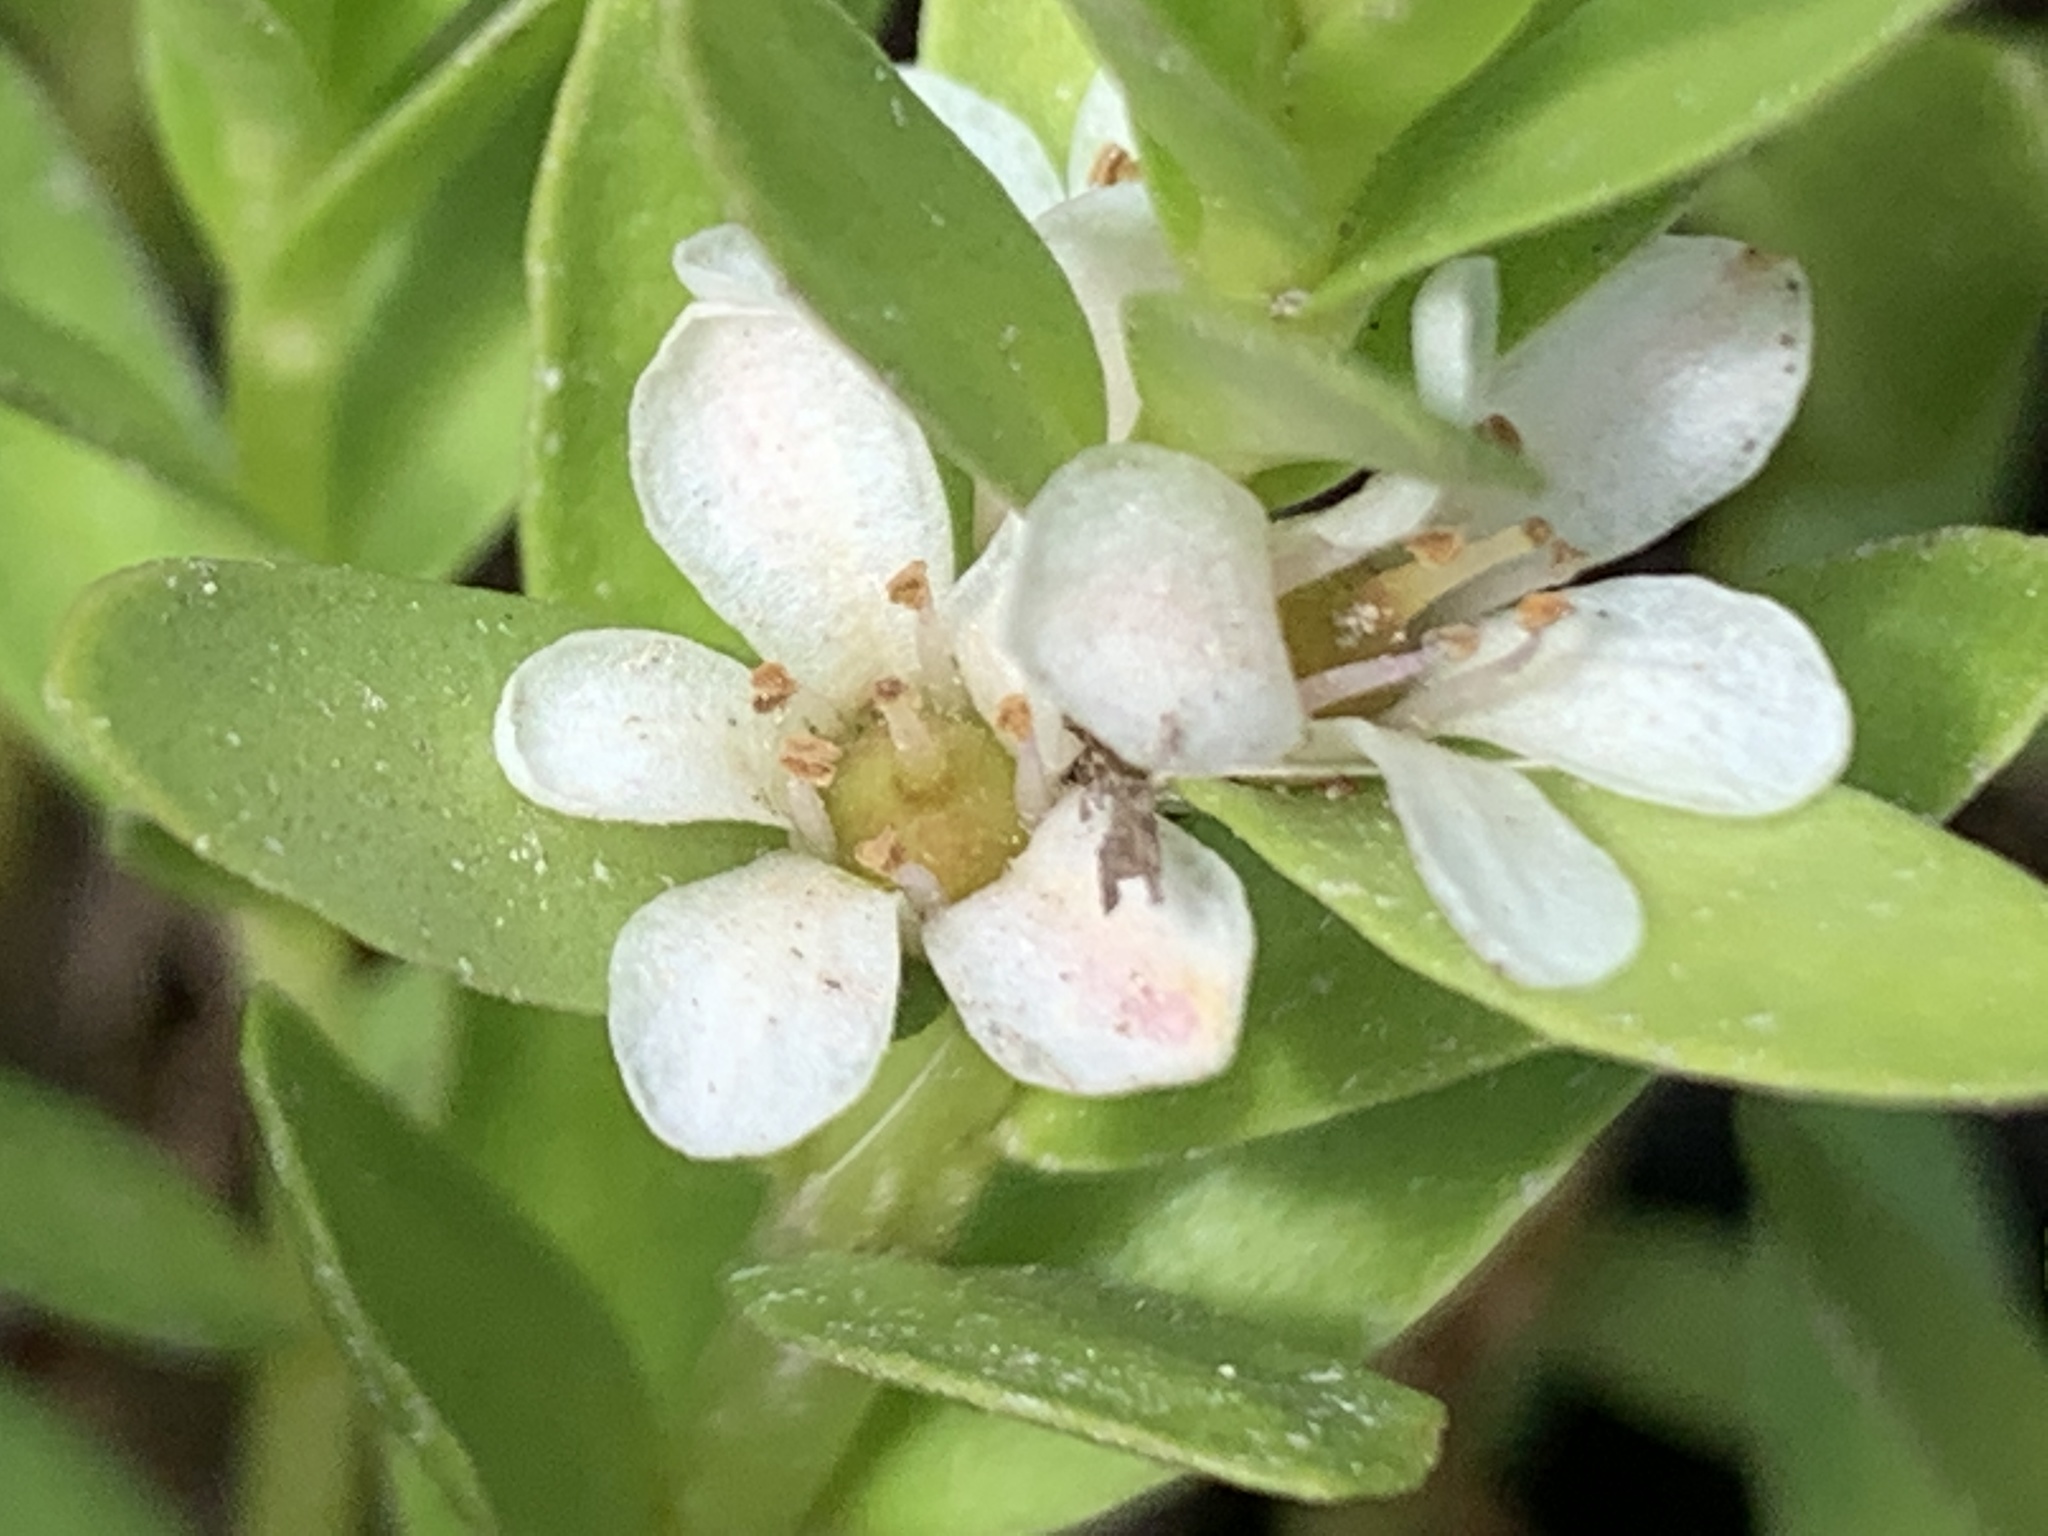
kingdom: Plantae
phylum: Tracheophyta
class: Magnoliopsida
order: Ericales
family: Primulaceae
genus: Lysimachia
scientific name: Lysimachia maritima
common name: Sea milkwort
